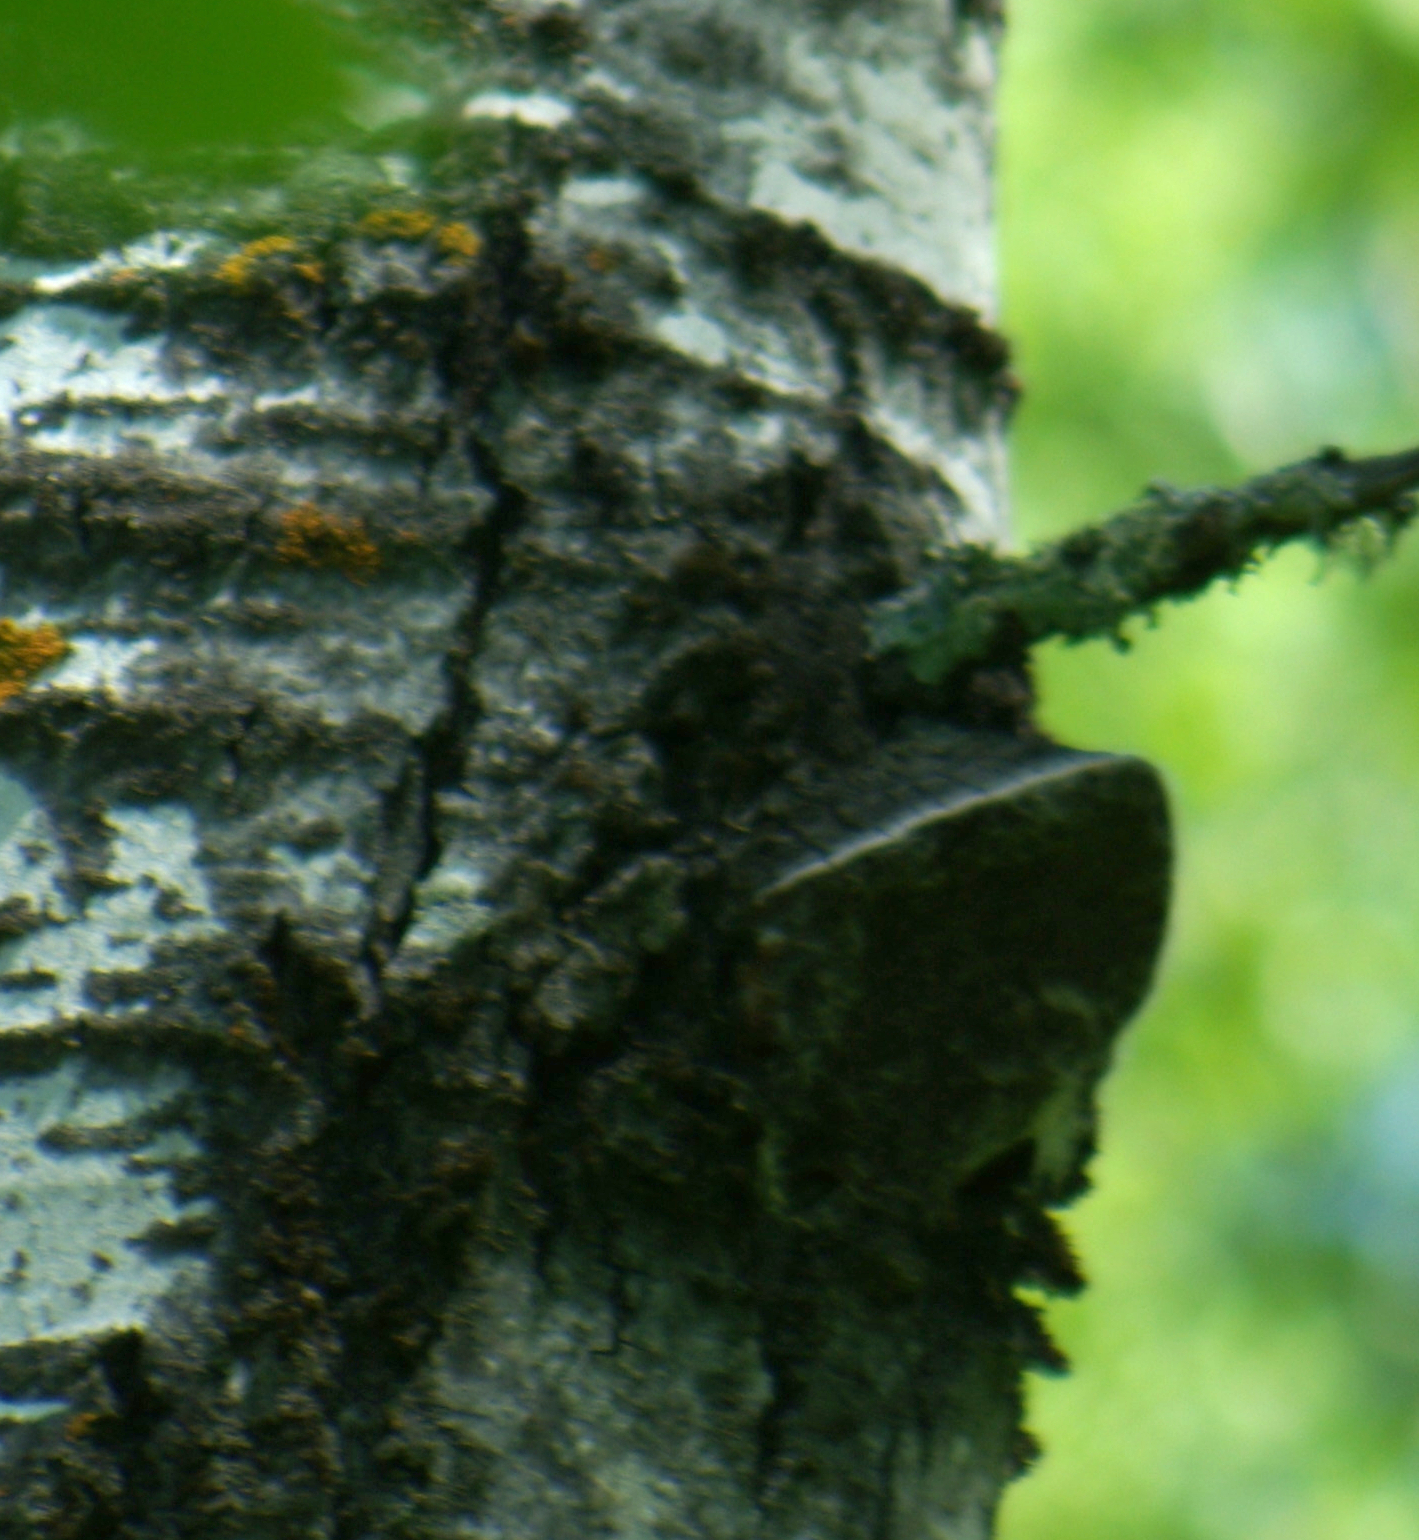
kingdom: Fungi
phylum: Basidiomycota
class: Agaricomycetes
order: Hymenochaetales
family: Hymenochaetaceae
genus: Phellinus
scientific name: Phellinus tremulae
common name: Aspen bracket
